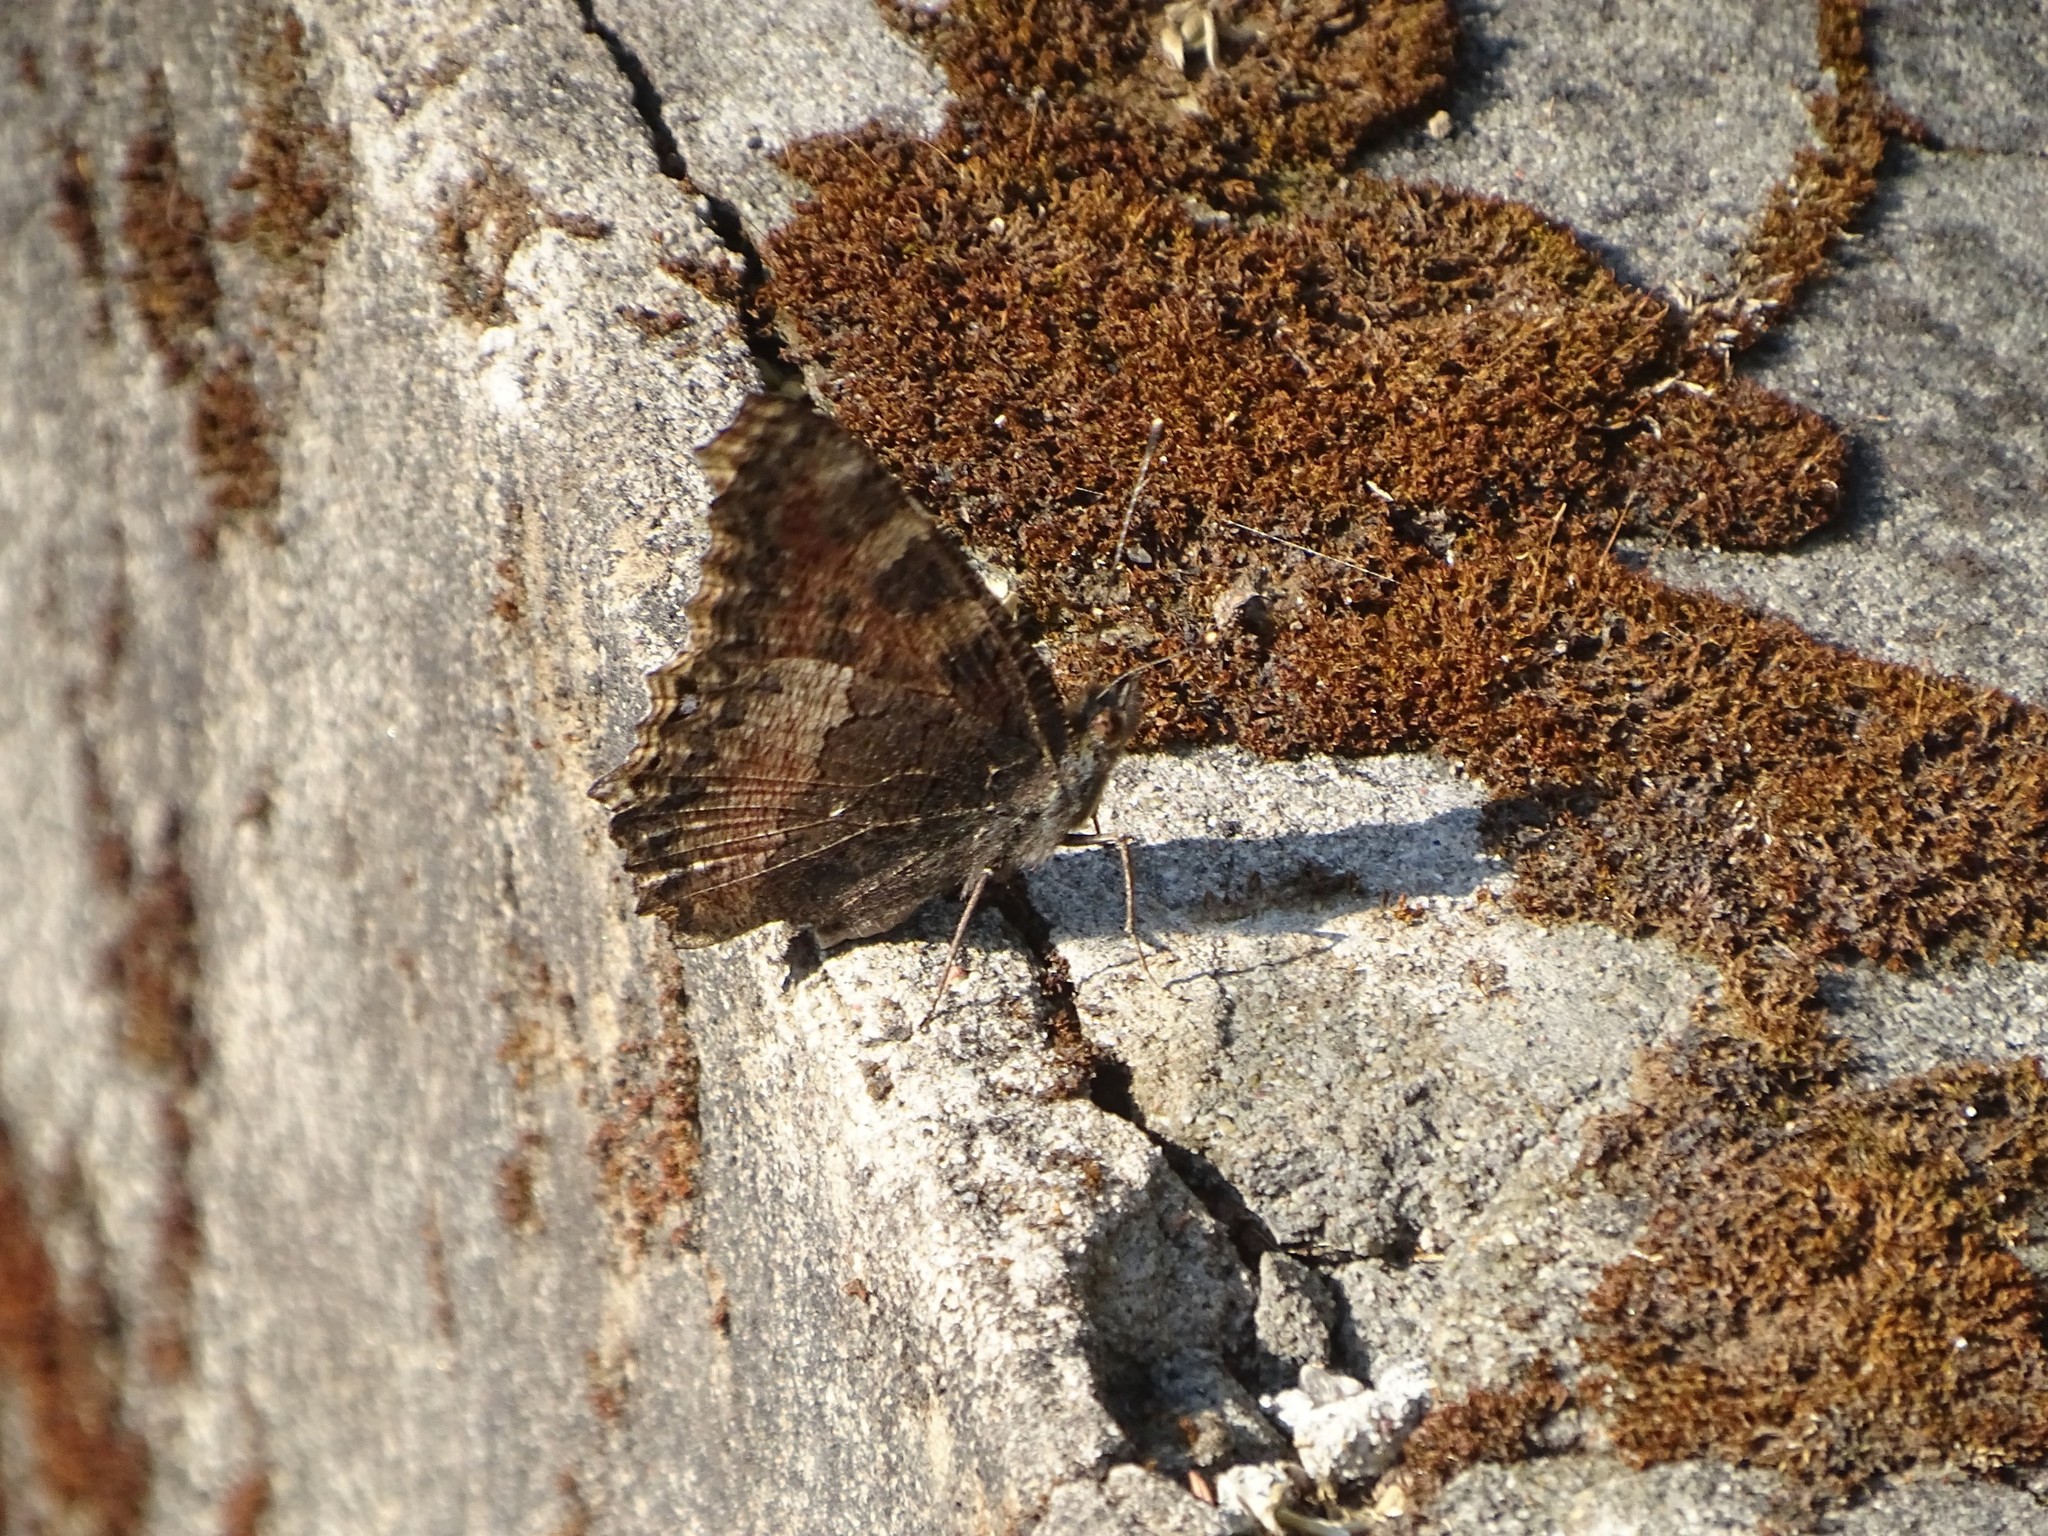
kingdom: Animalia
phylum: Arthropoda
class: Insecta
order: Lepidoptera
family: Nymphalidae
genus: Aglais
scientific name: Aglais caschmirensis
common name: Indian tortoiseshell
